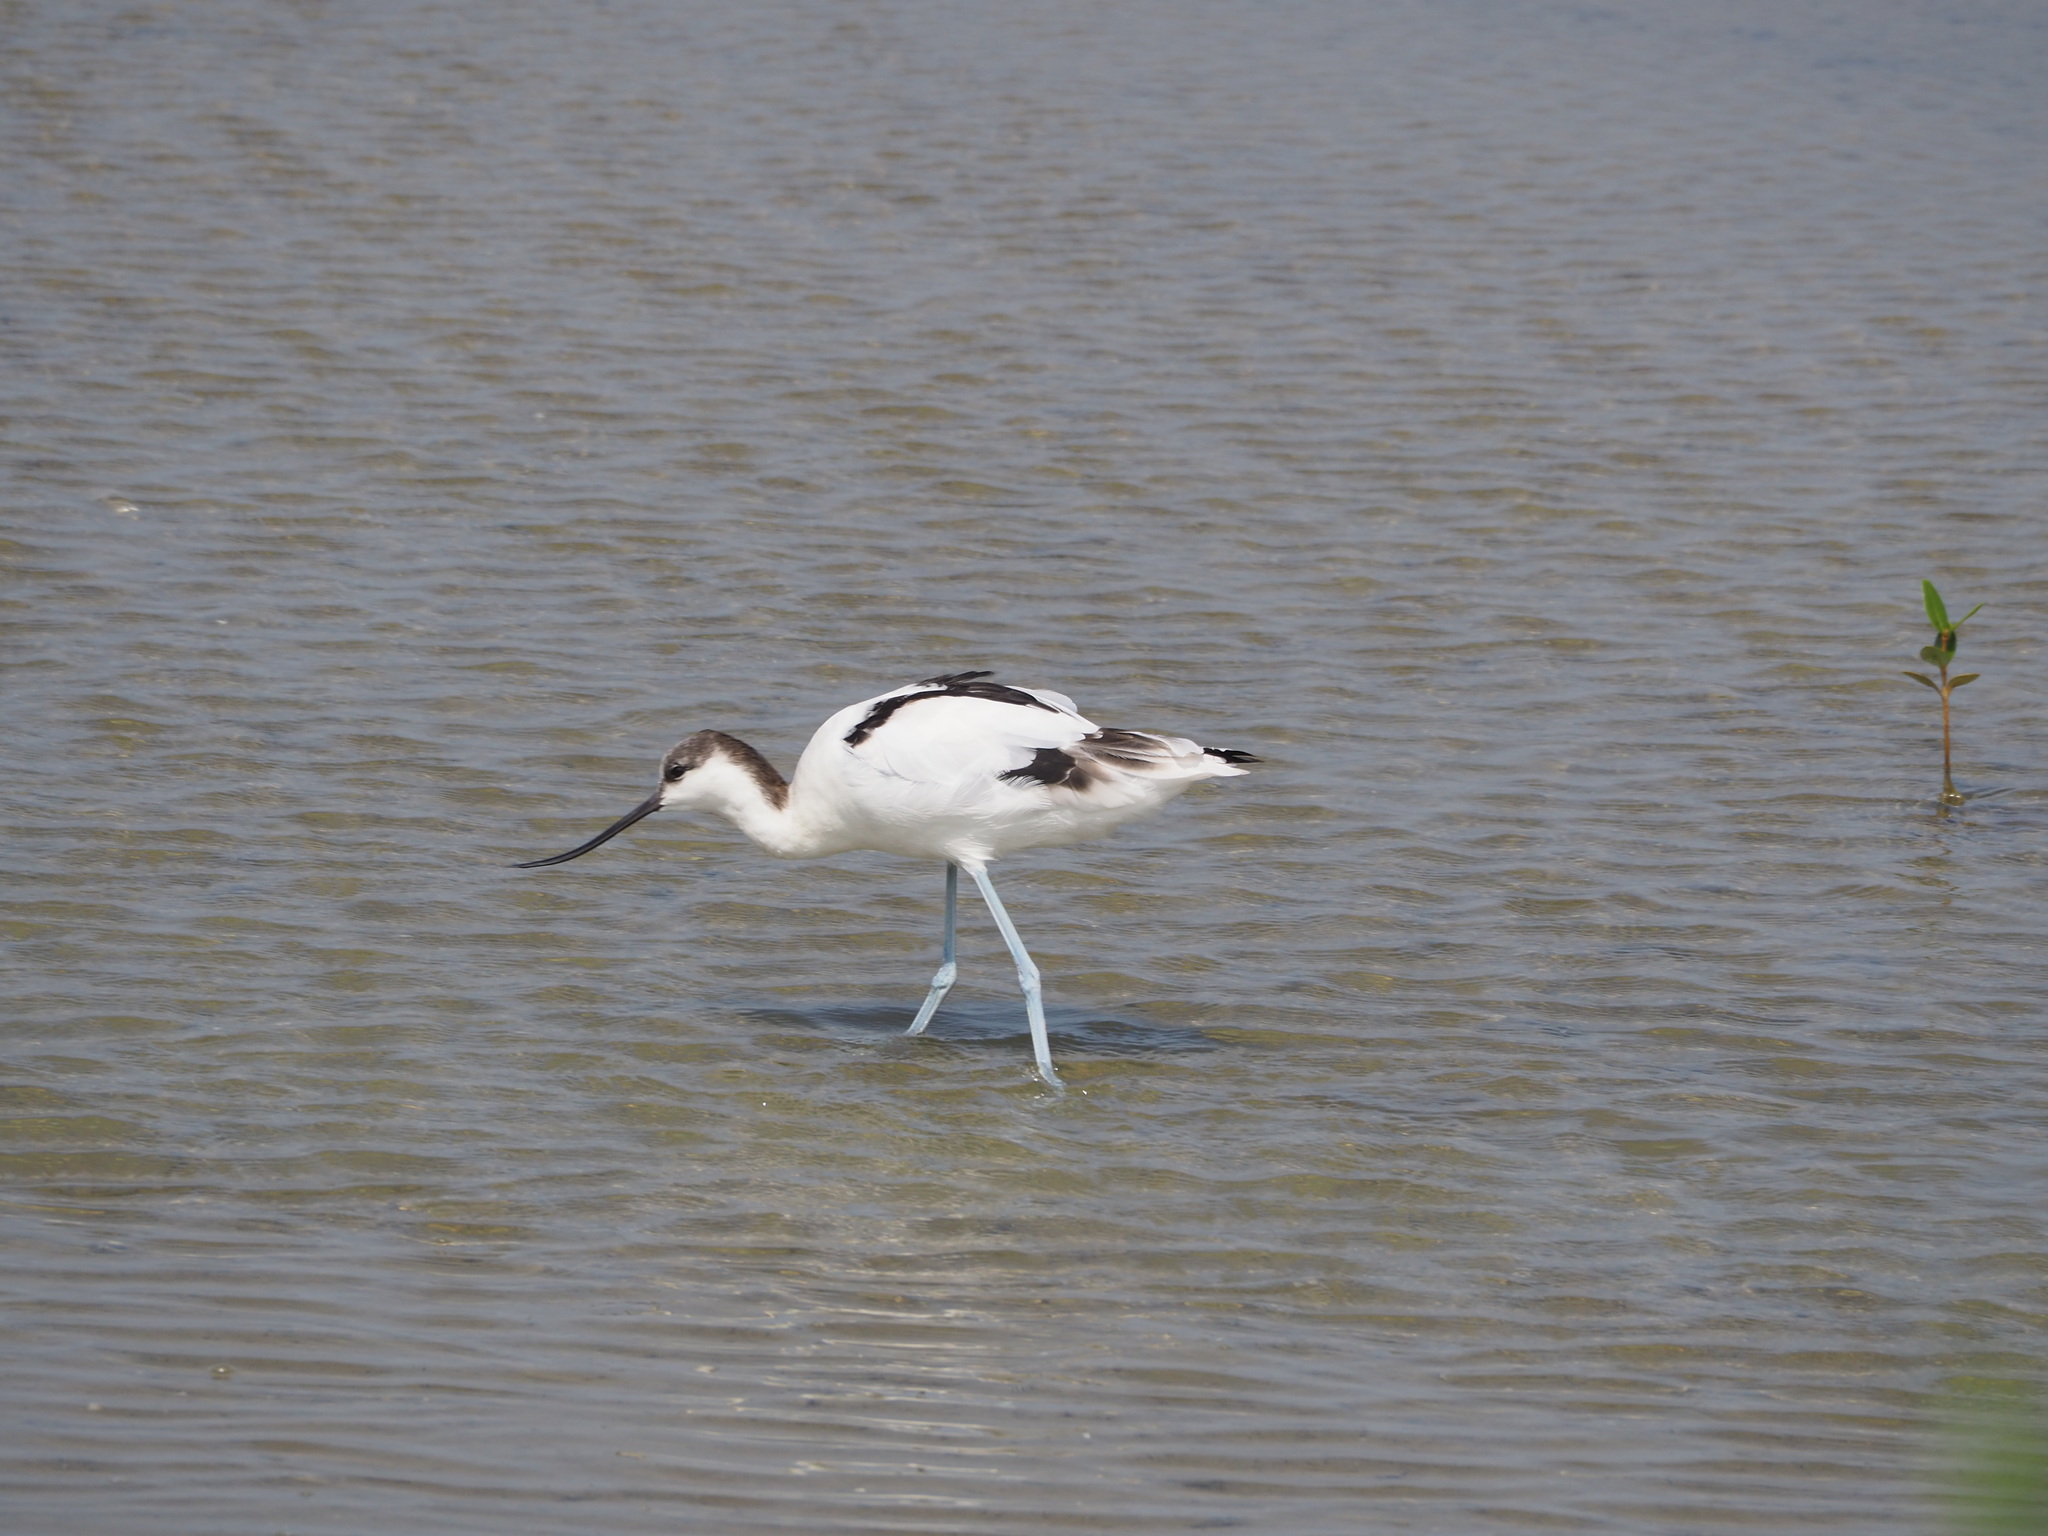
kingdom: Animalia
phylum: Chordata
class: Aves
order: Charadriiformes
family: Recurvirostridae
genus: Recurvirostra
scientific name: Recurvirostra avosetta
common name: Pied avocet
